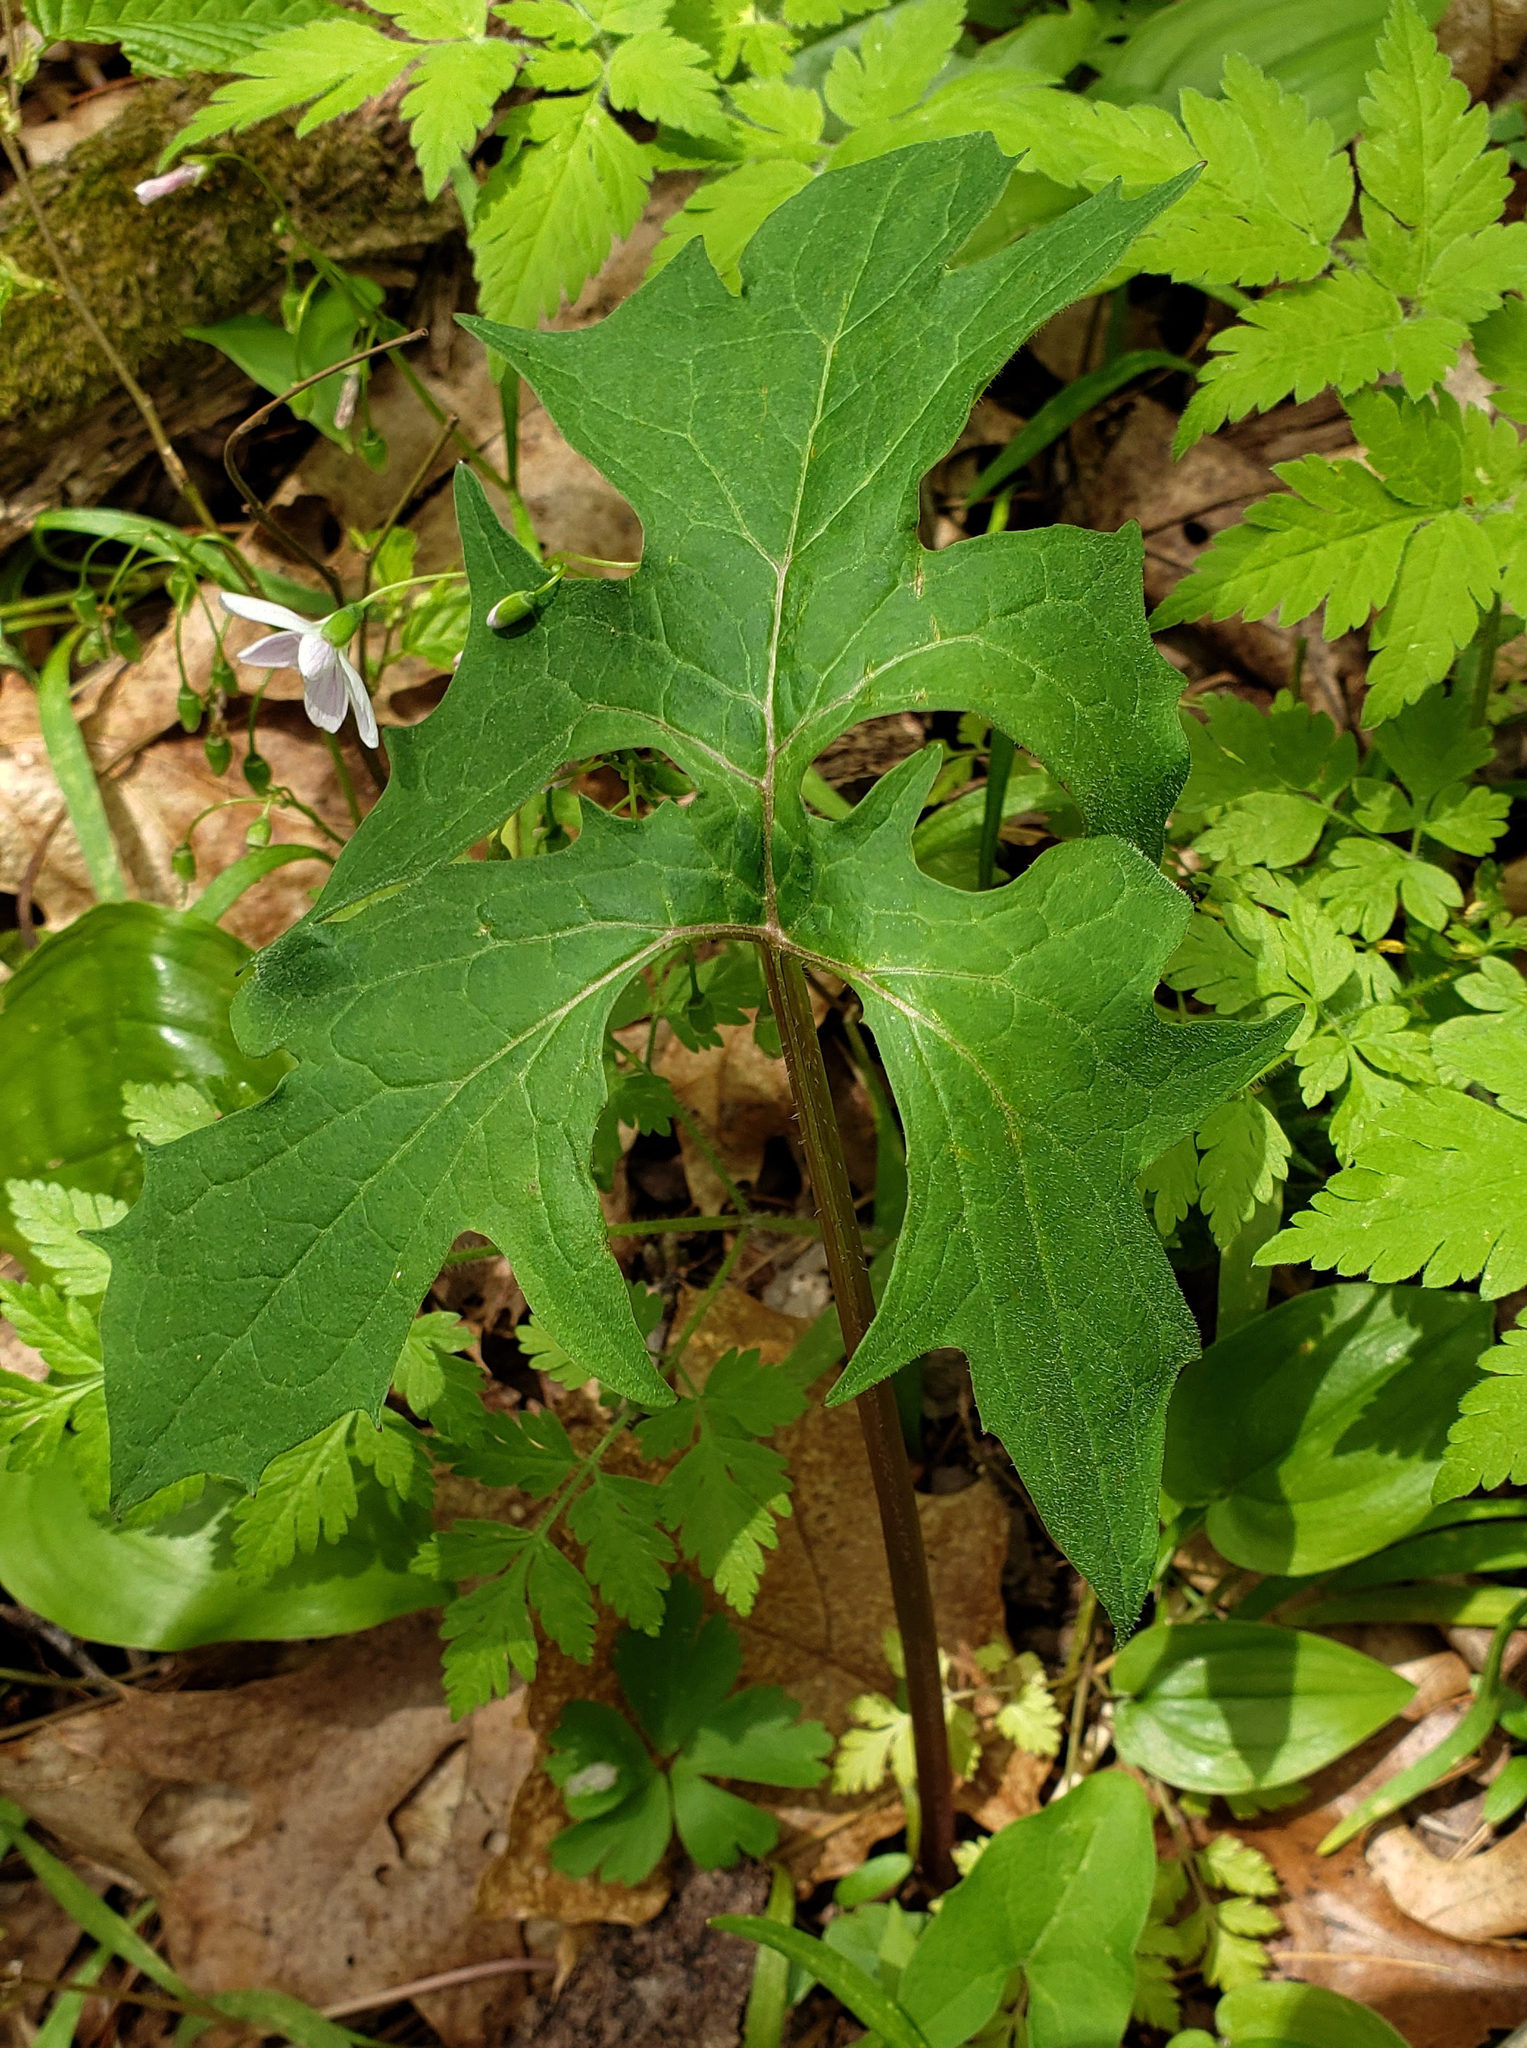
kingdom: Plantae
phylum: Tracheophyta
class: Magnoliopsida
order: Asterales
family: Asteraceae
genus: Nabalus
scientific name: Nabalus albus
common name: White rattlesnakeroot
